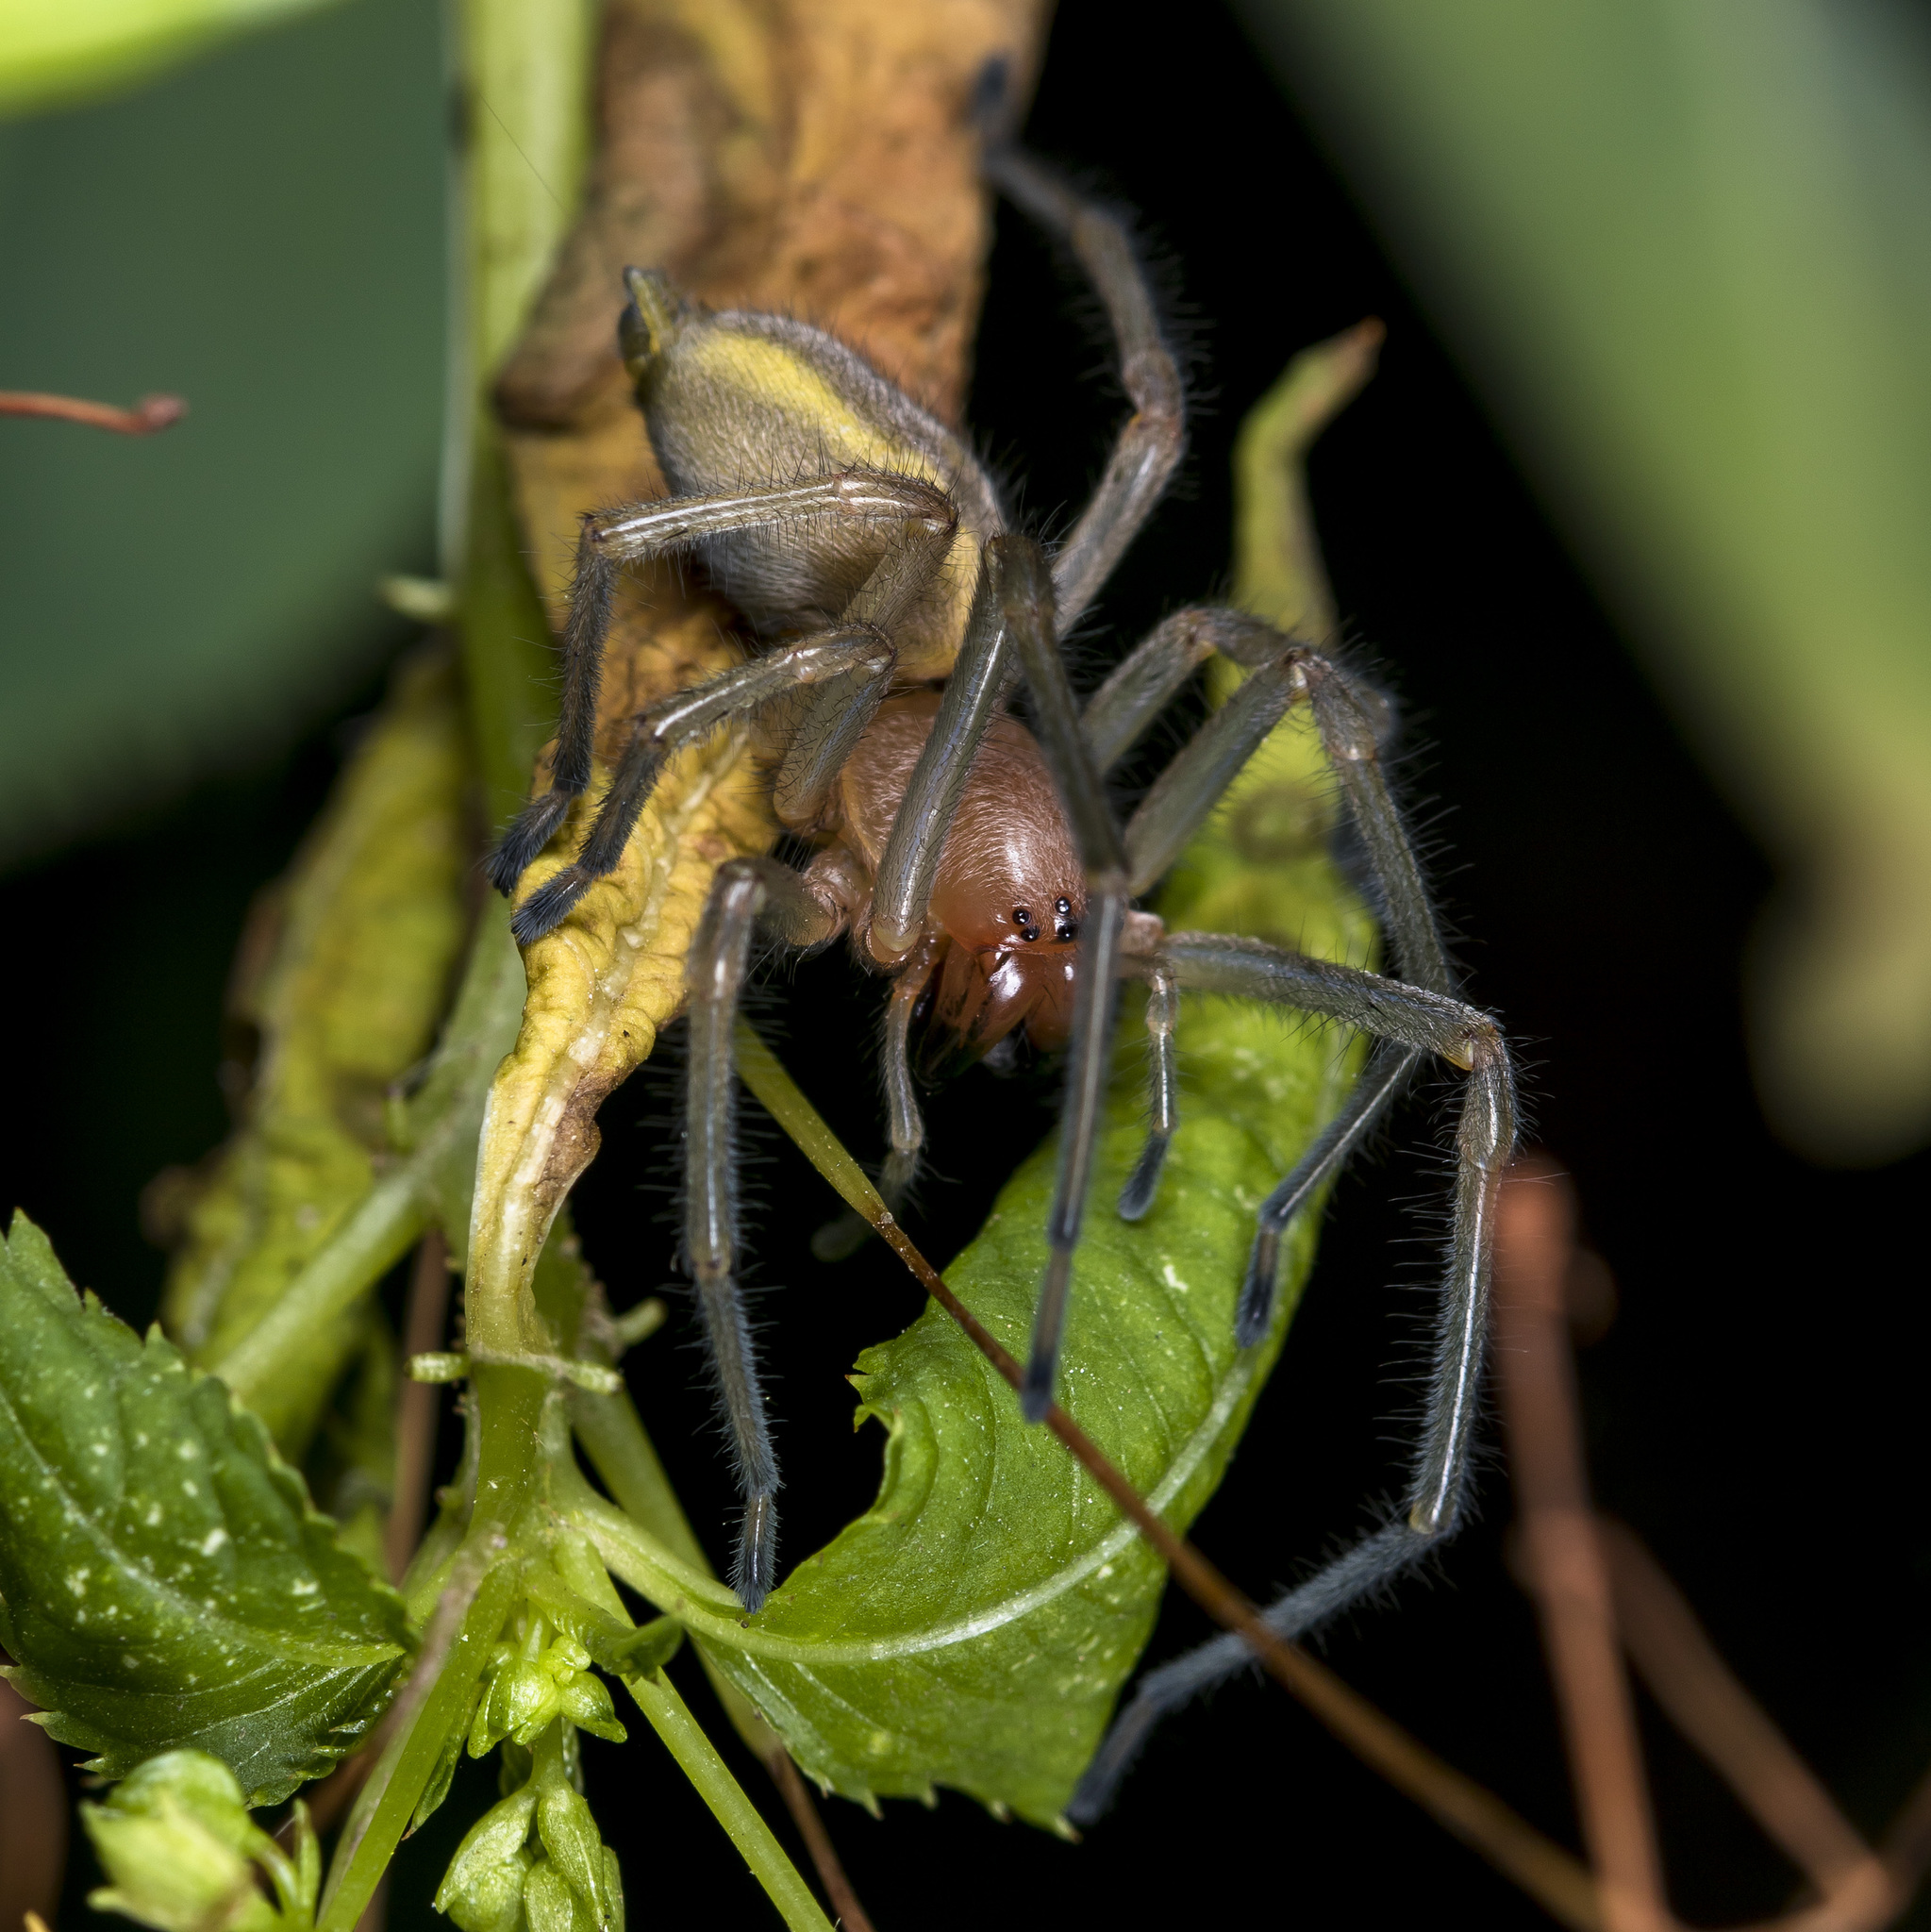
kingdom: Animalia
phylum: Arthropoda
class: Arachnida
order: Araneae
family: Cheiracanthiidae
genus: Cheiracanthium
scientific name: Cheiracanthium punctorium
